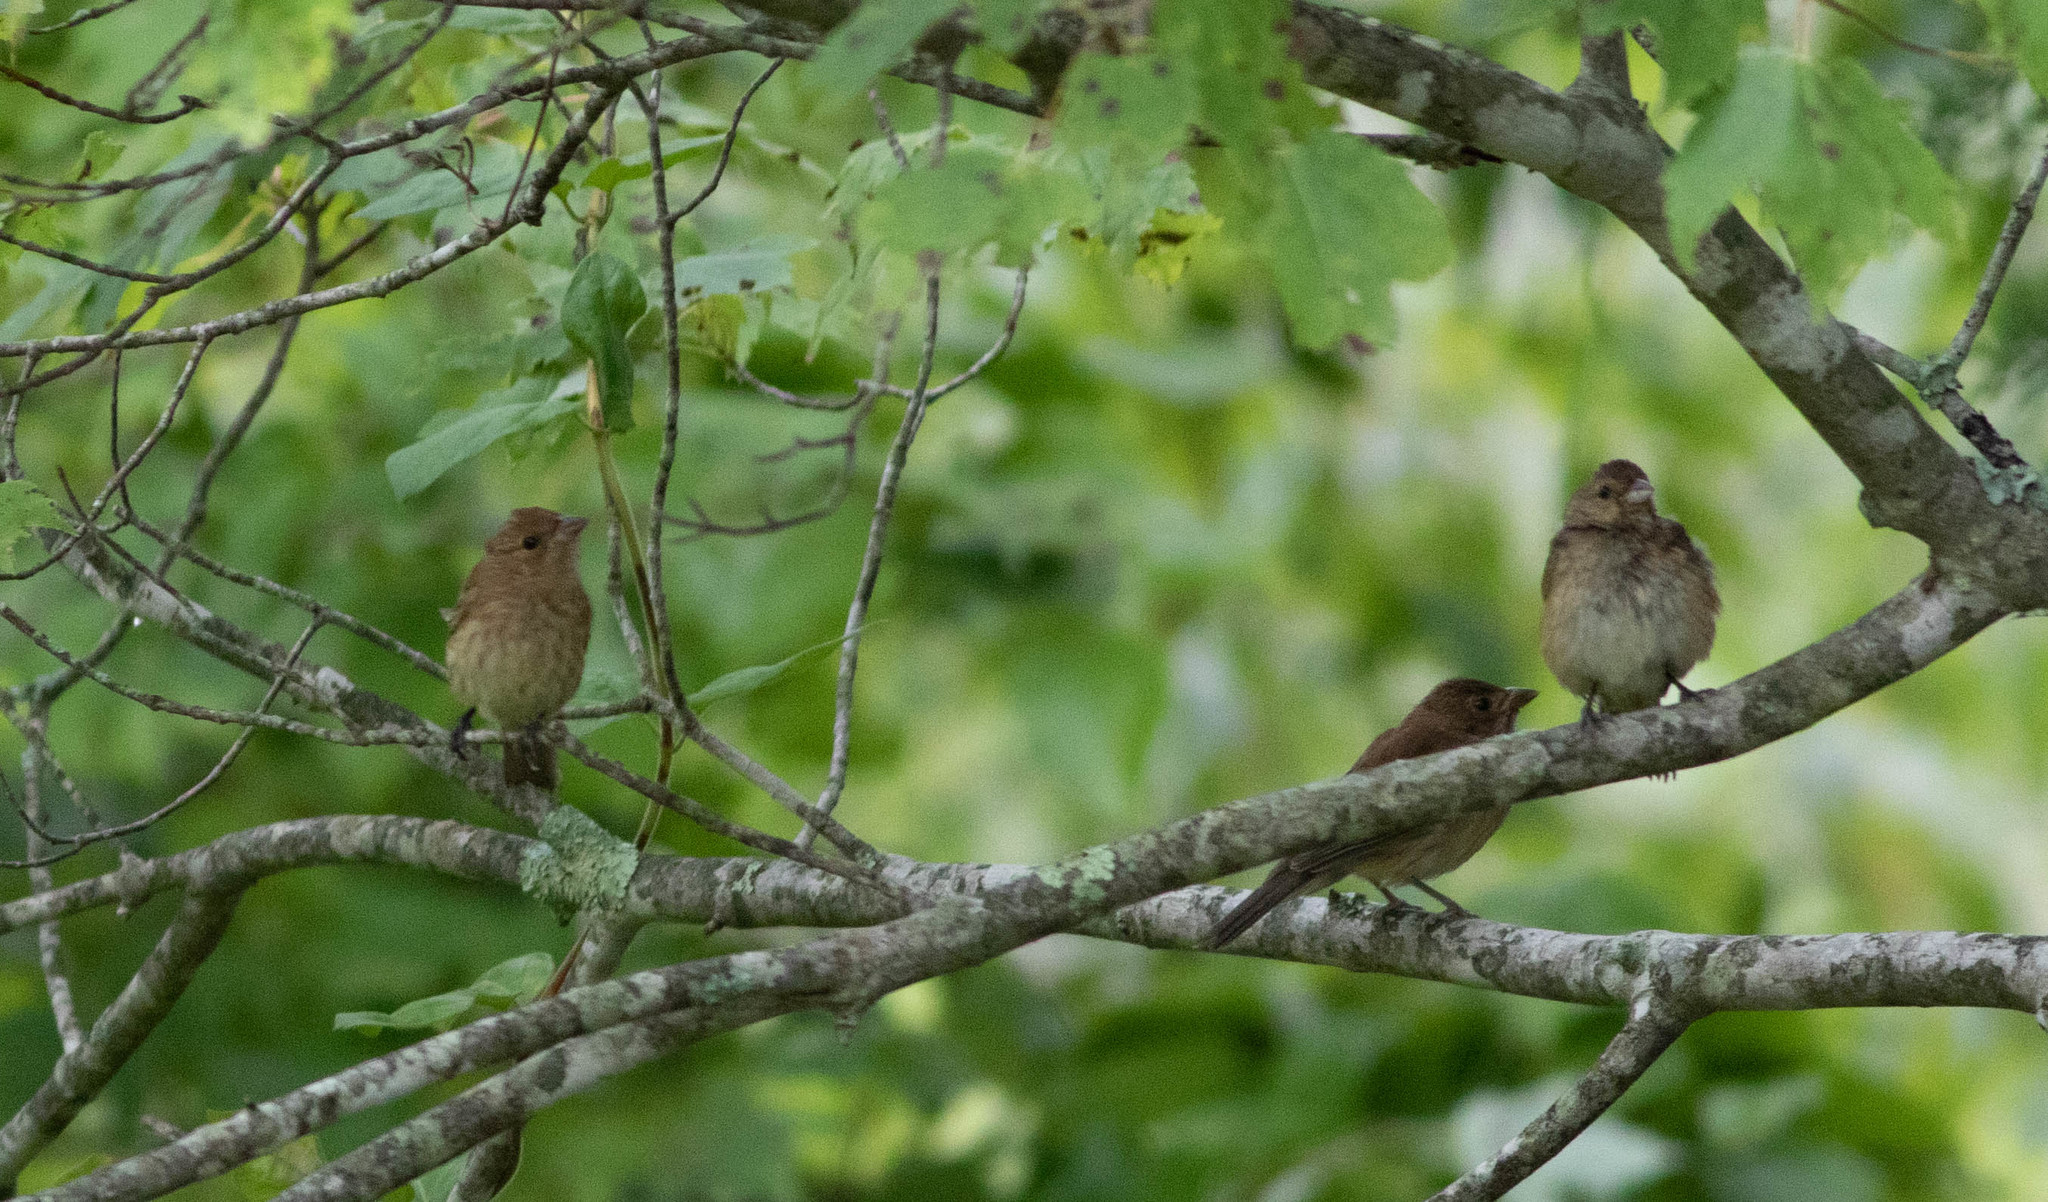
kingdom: Animalia
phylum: Chordata
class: Aves
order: Passeriformes
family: Cardinalidae
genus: Passerina
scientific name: Passerina cyanea
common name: Indigo bunting
